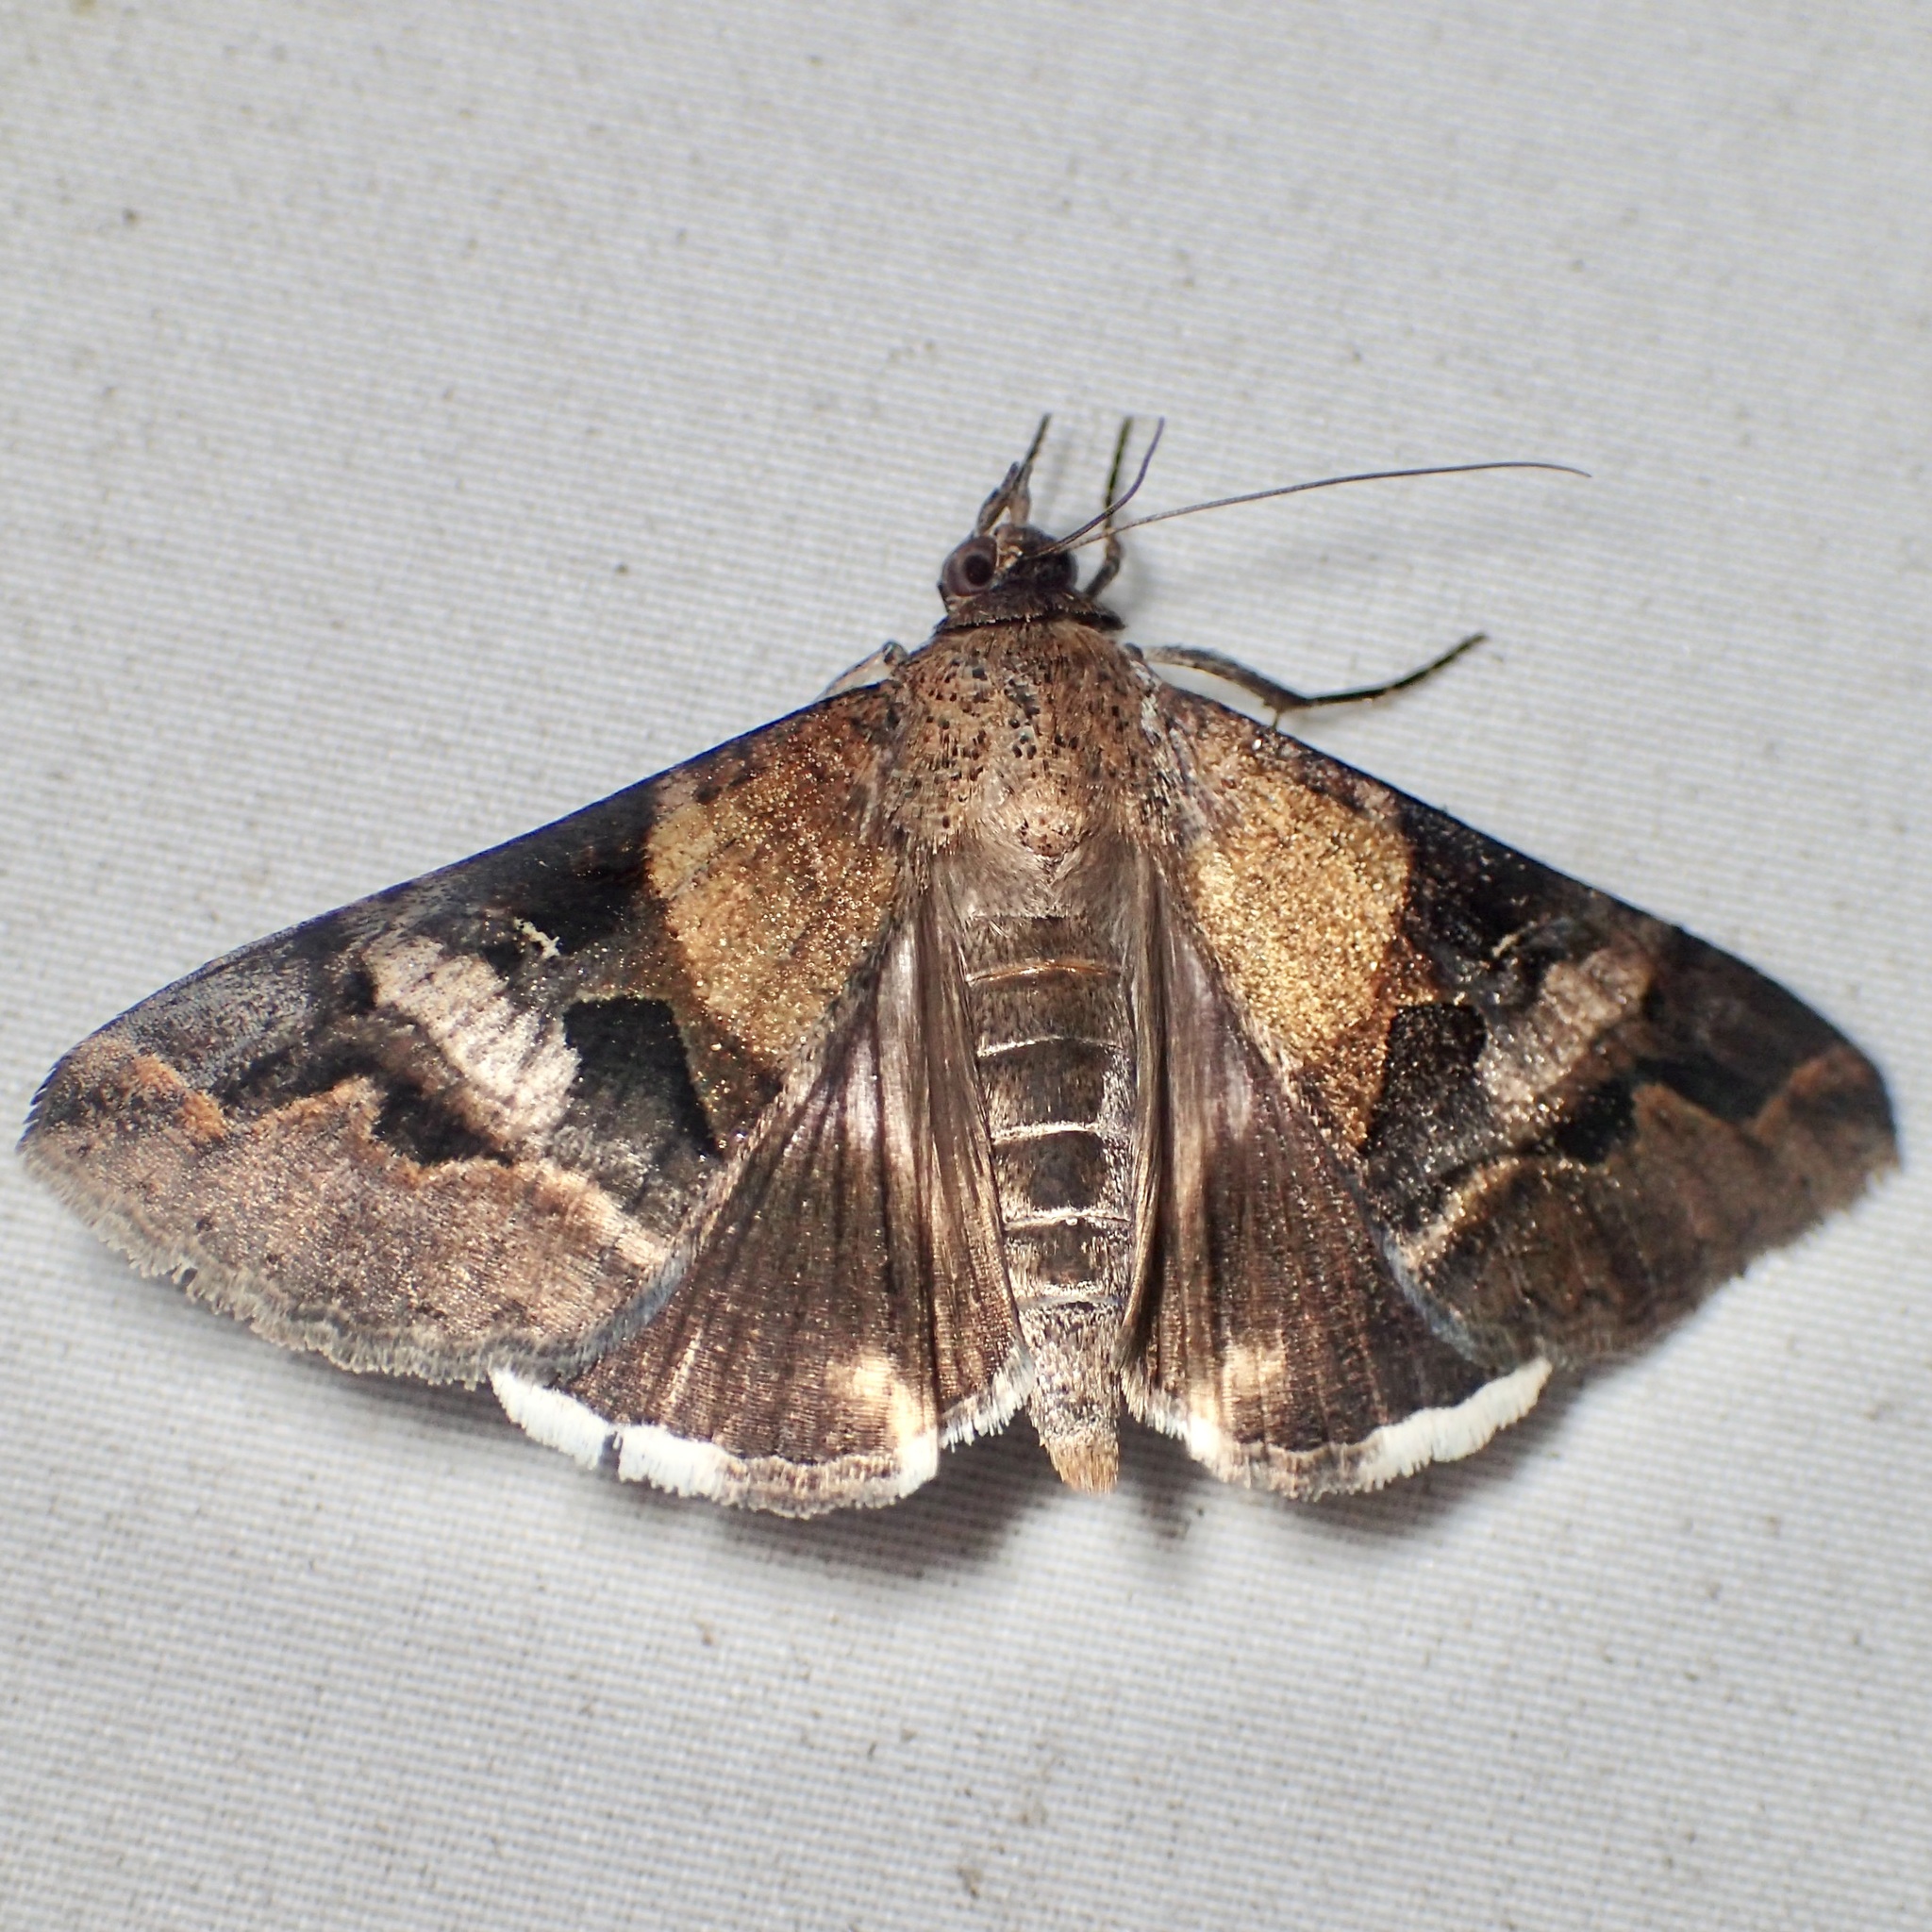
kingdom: Animalia
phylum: Arthropoda
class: Insecta
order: Lepidoptera
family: Erebidae
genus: Melipotis
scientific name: Melipotis perpendicularis
